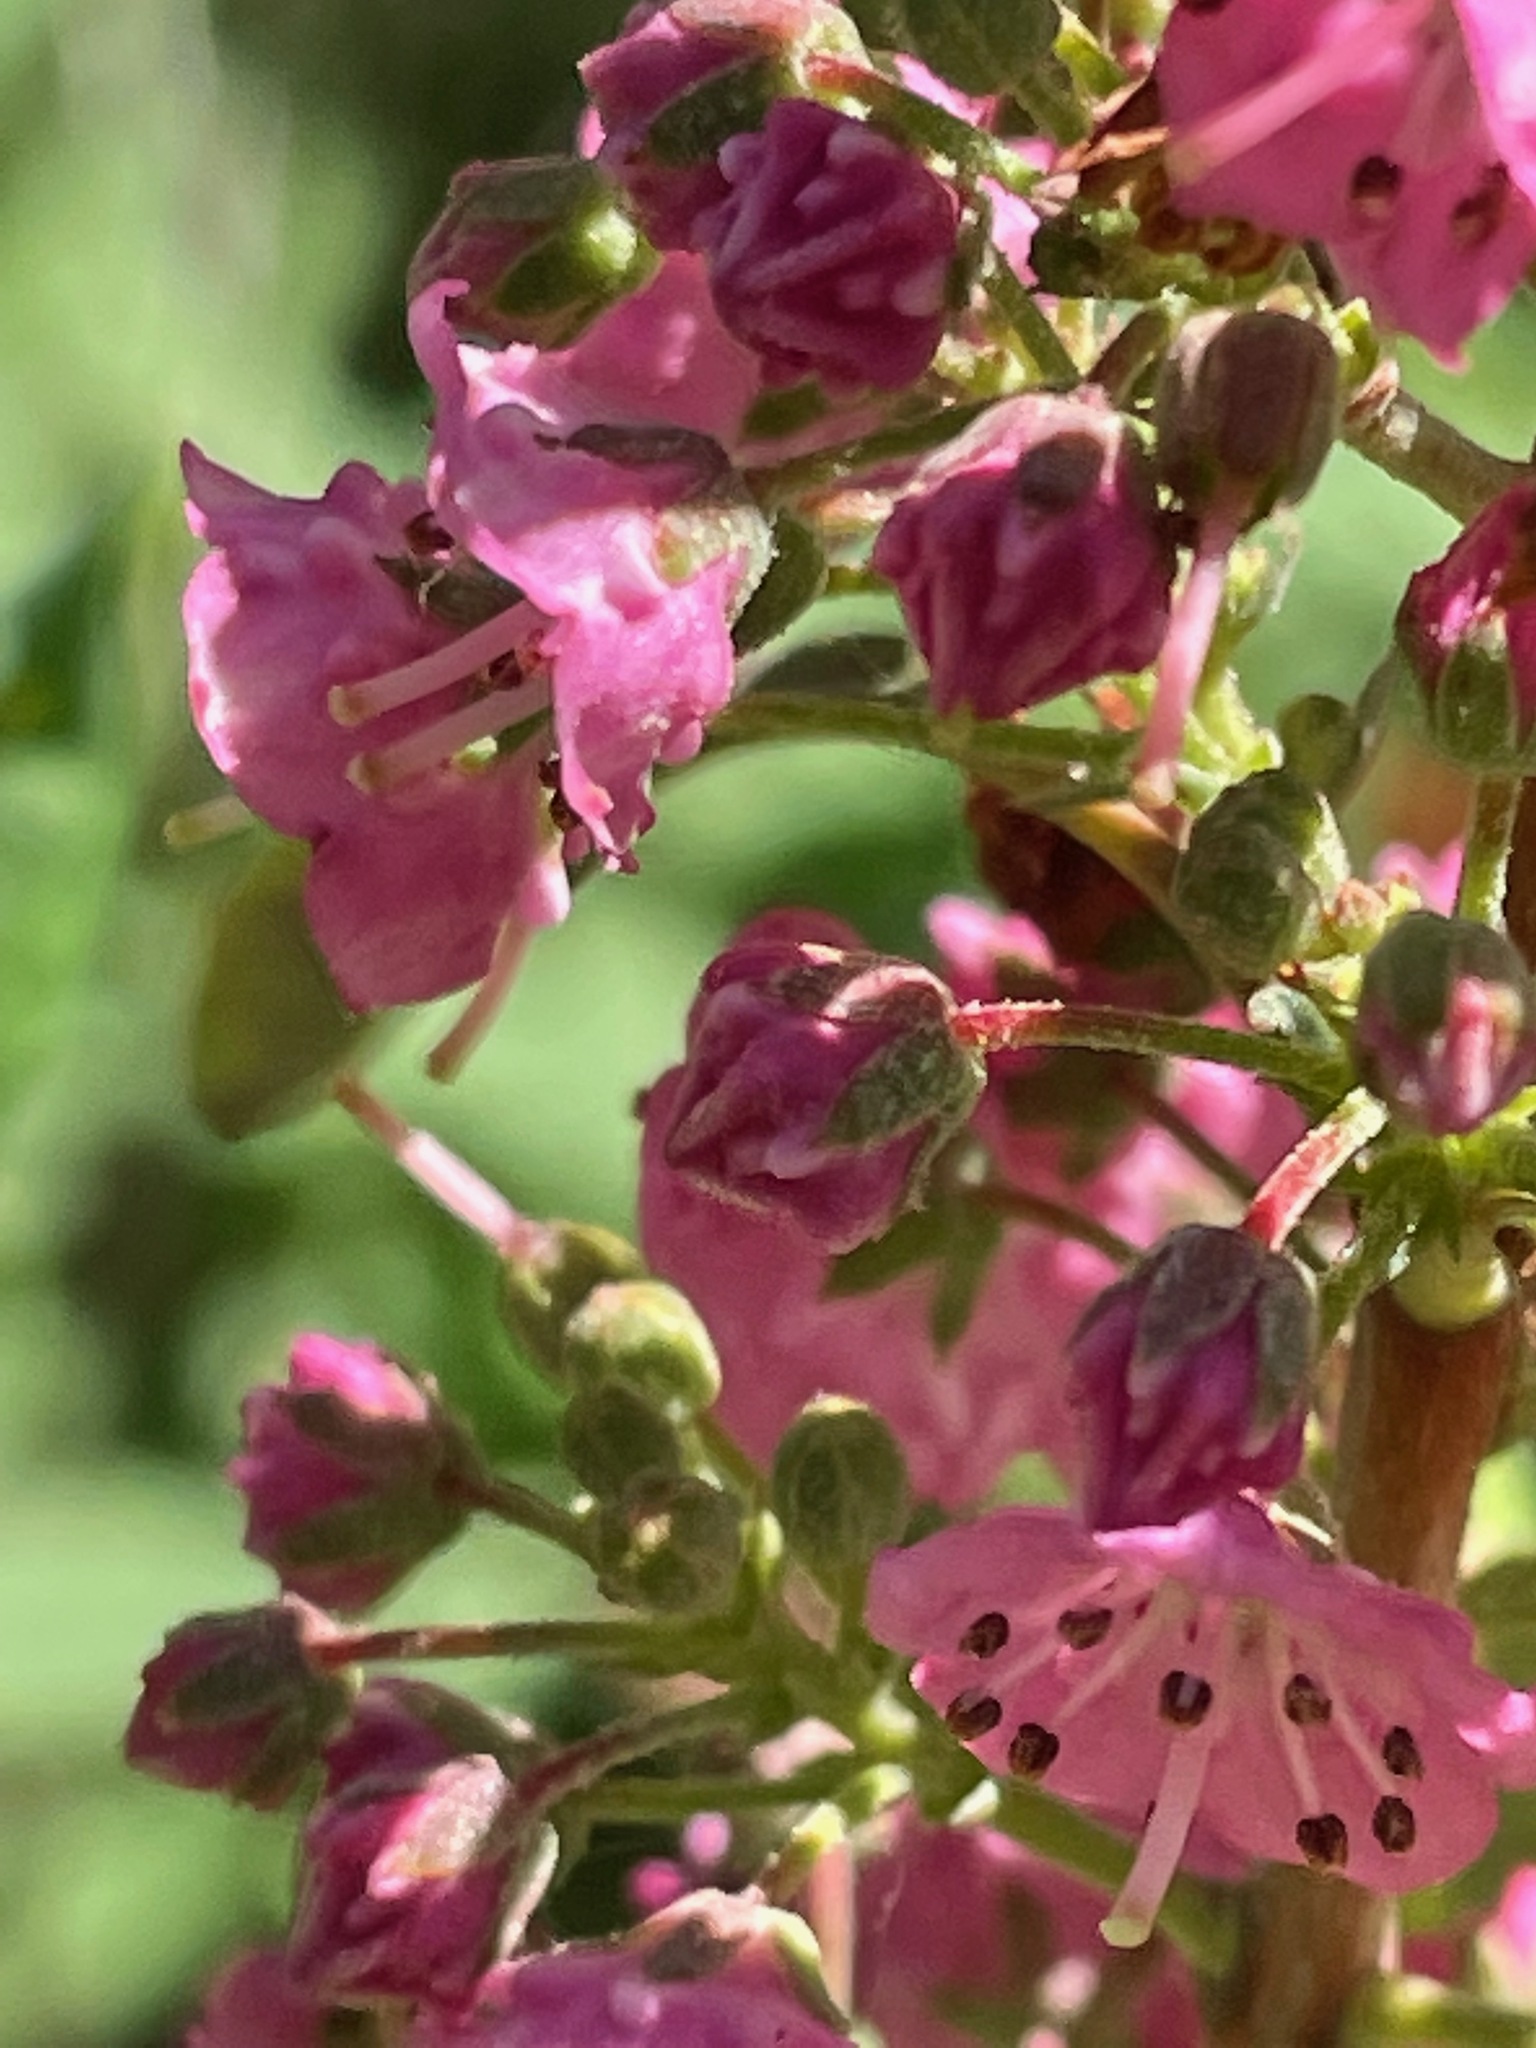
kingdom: Plantae
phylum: Tracheophyta
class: Magnoliopsida
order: Ericales
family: Ericaceae
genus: Kalmia
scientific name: Kalmia angustifolia
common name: Sheep-laurel
